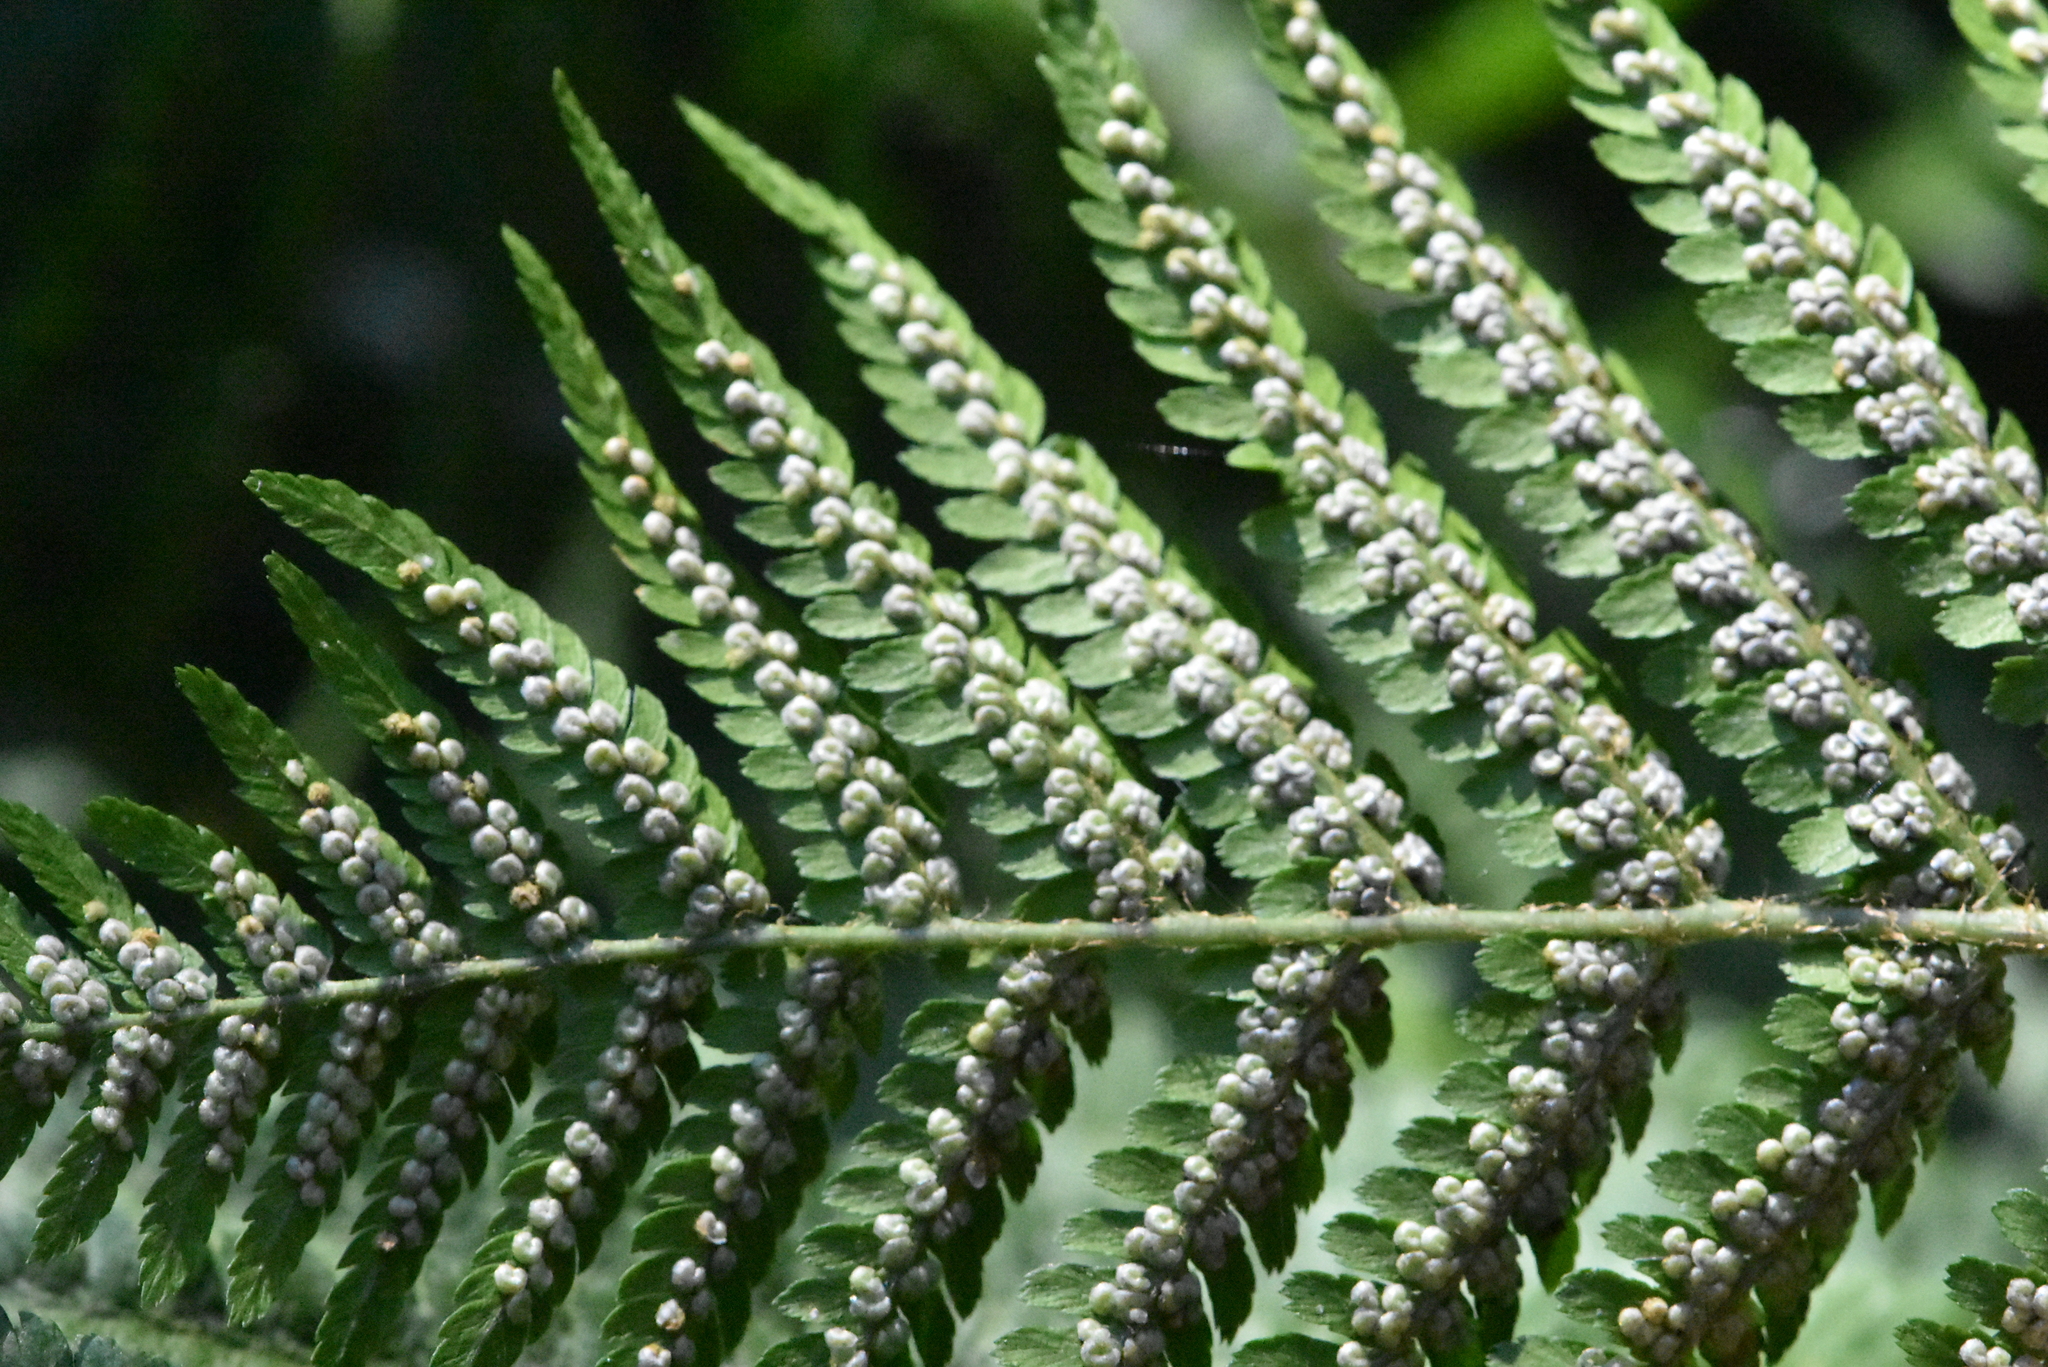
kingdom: Plantae
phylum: Tracheophyta
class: Polypodiopsida
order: Polypodiales
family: Dryopteridaceae
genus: Dryopteris
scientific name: Dryopteris filix-mas
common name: Male fern
